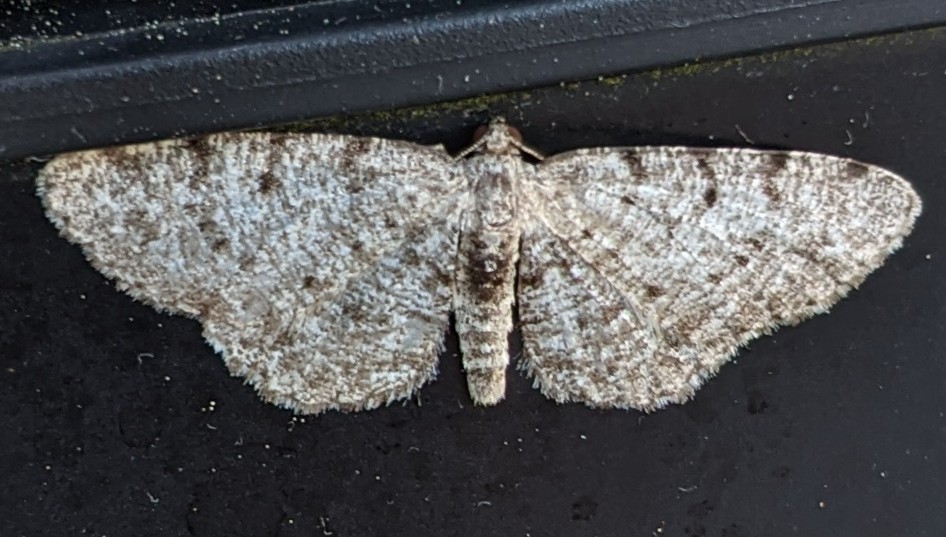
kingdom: Animalia
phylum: Arthropoda
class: Insecta
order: Lepidoptera
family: Geometridae
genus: Aethalura
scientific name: Aethalura intertexta
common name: Four-barred gray
